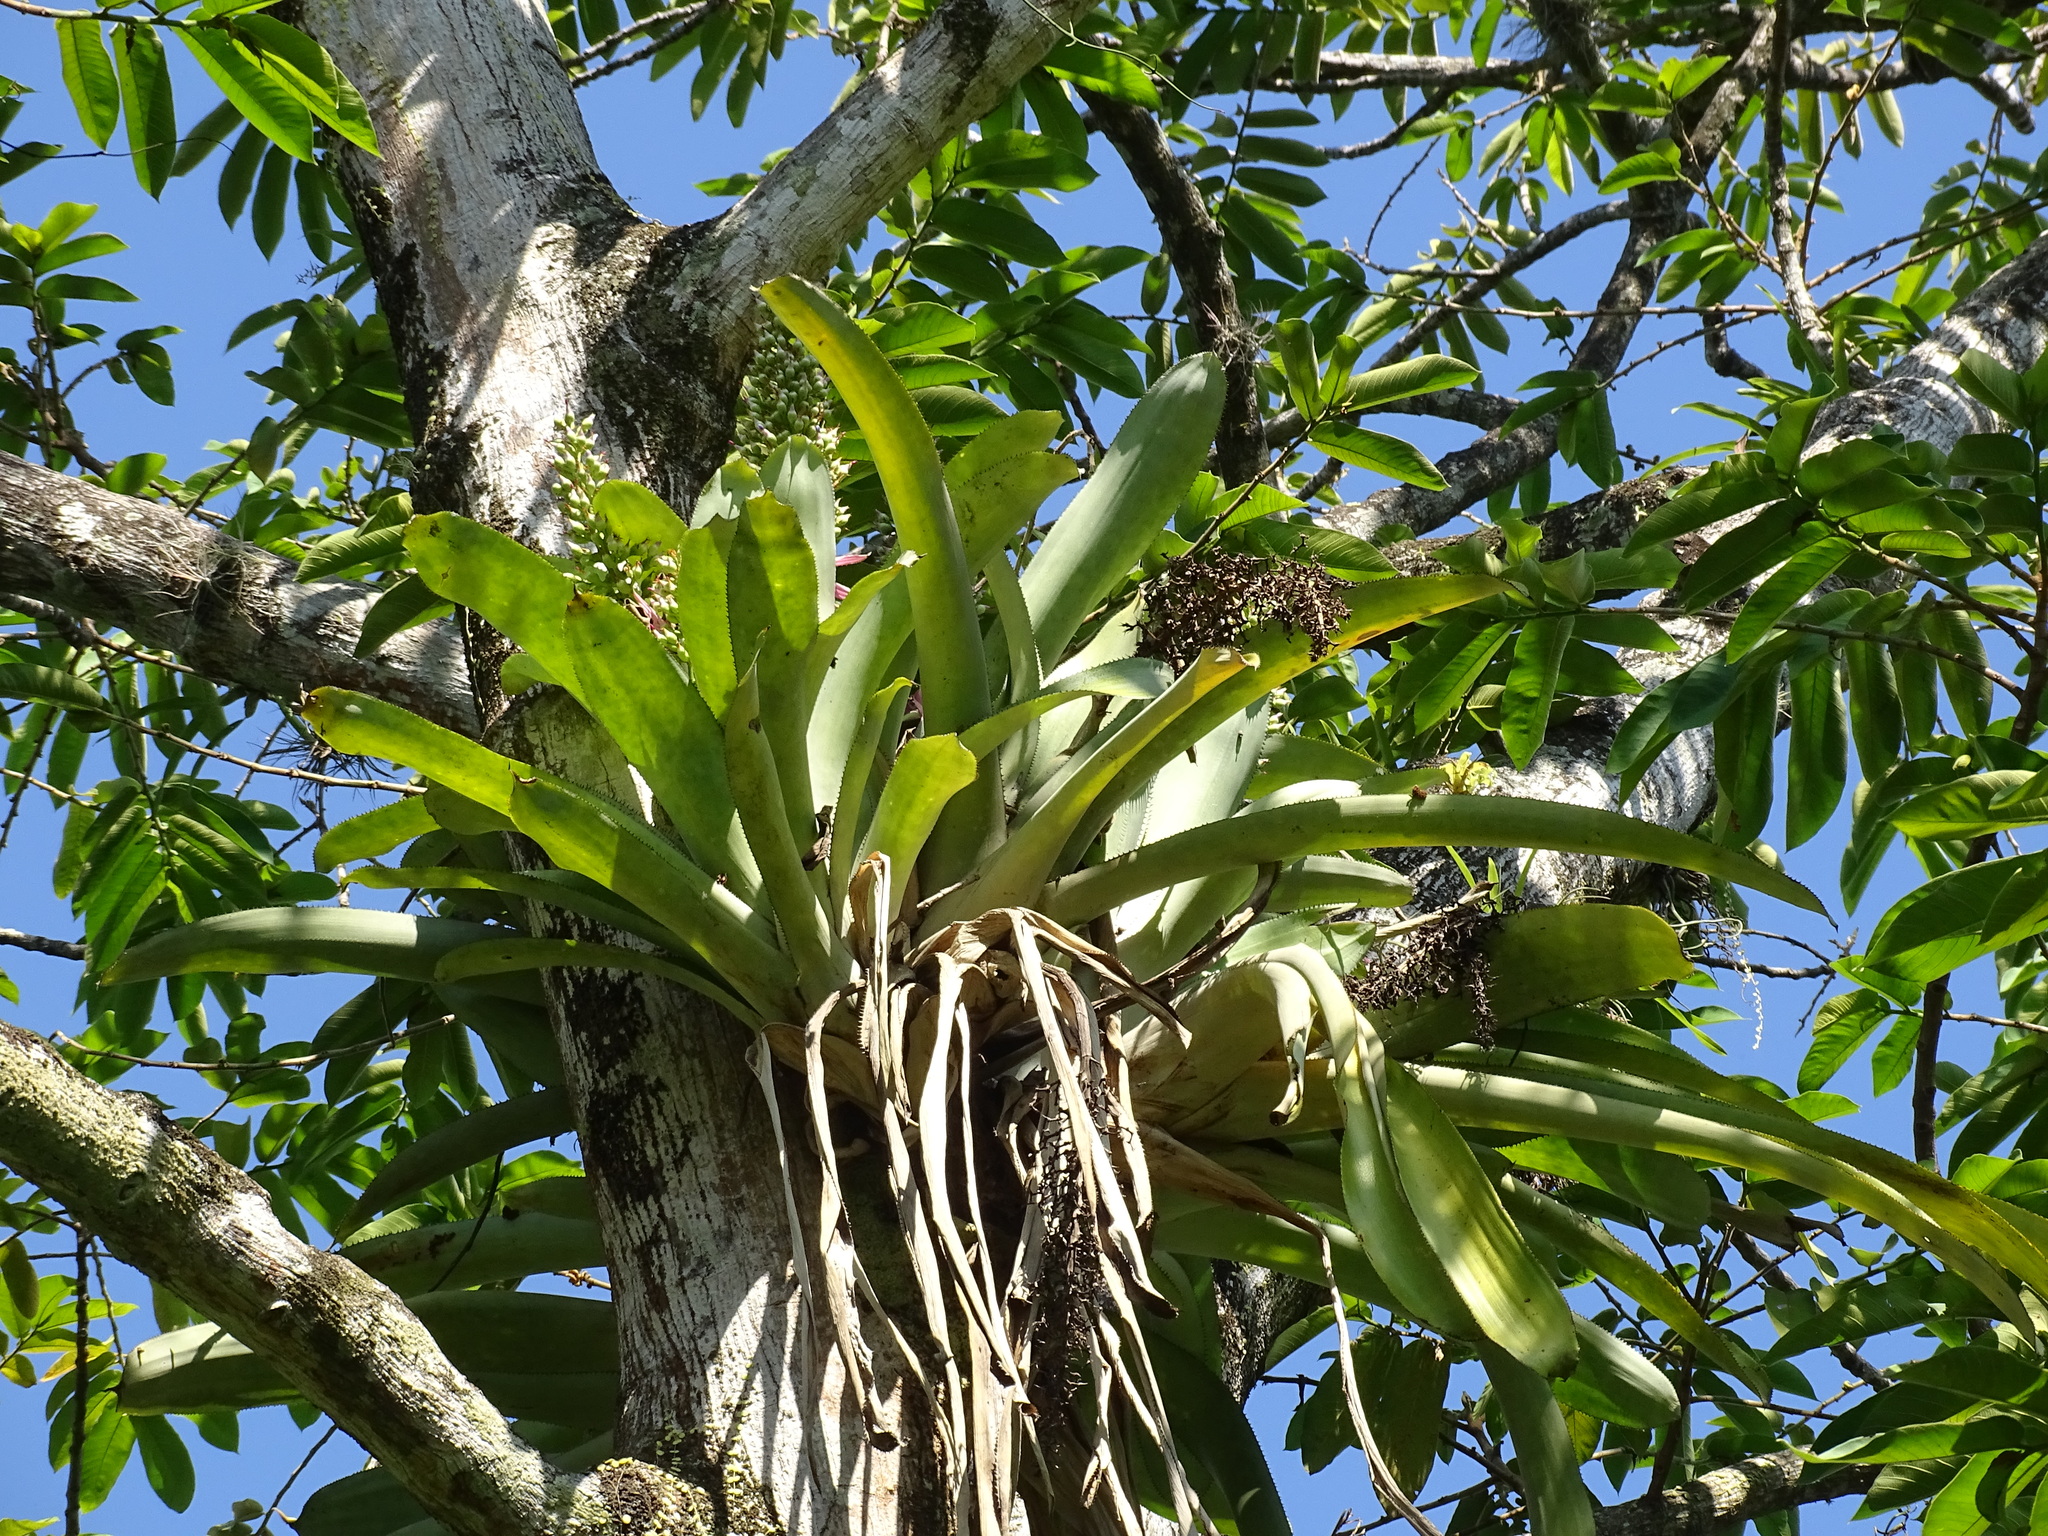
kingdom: Plantae
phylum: Tracheophyta
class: Liliopsida
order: Poales
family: Bromeliaceae
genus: Aechmea
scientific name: Aechmea matudae
